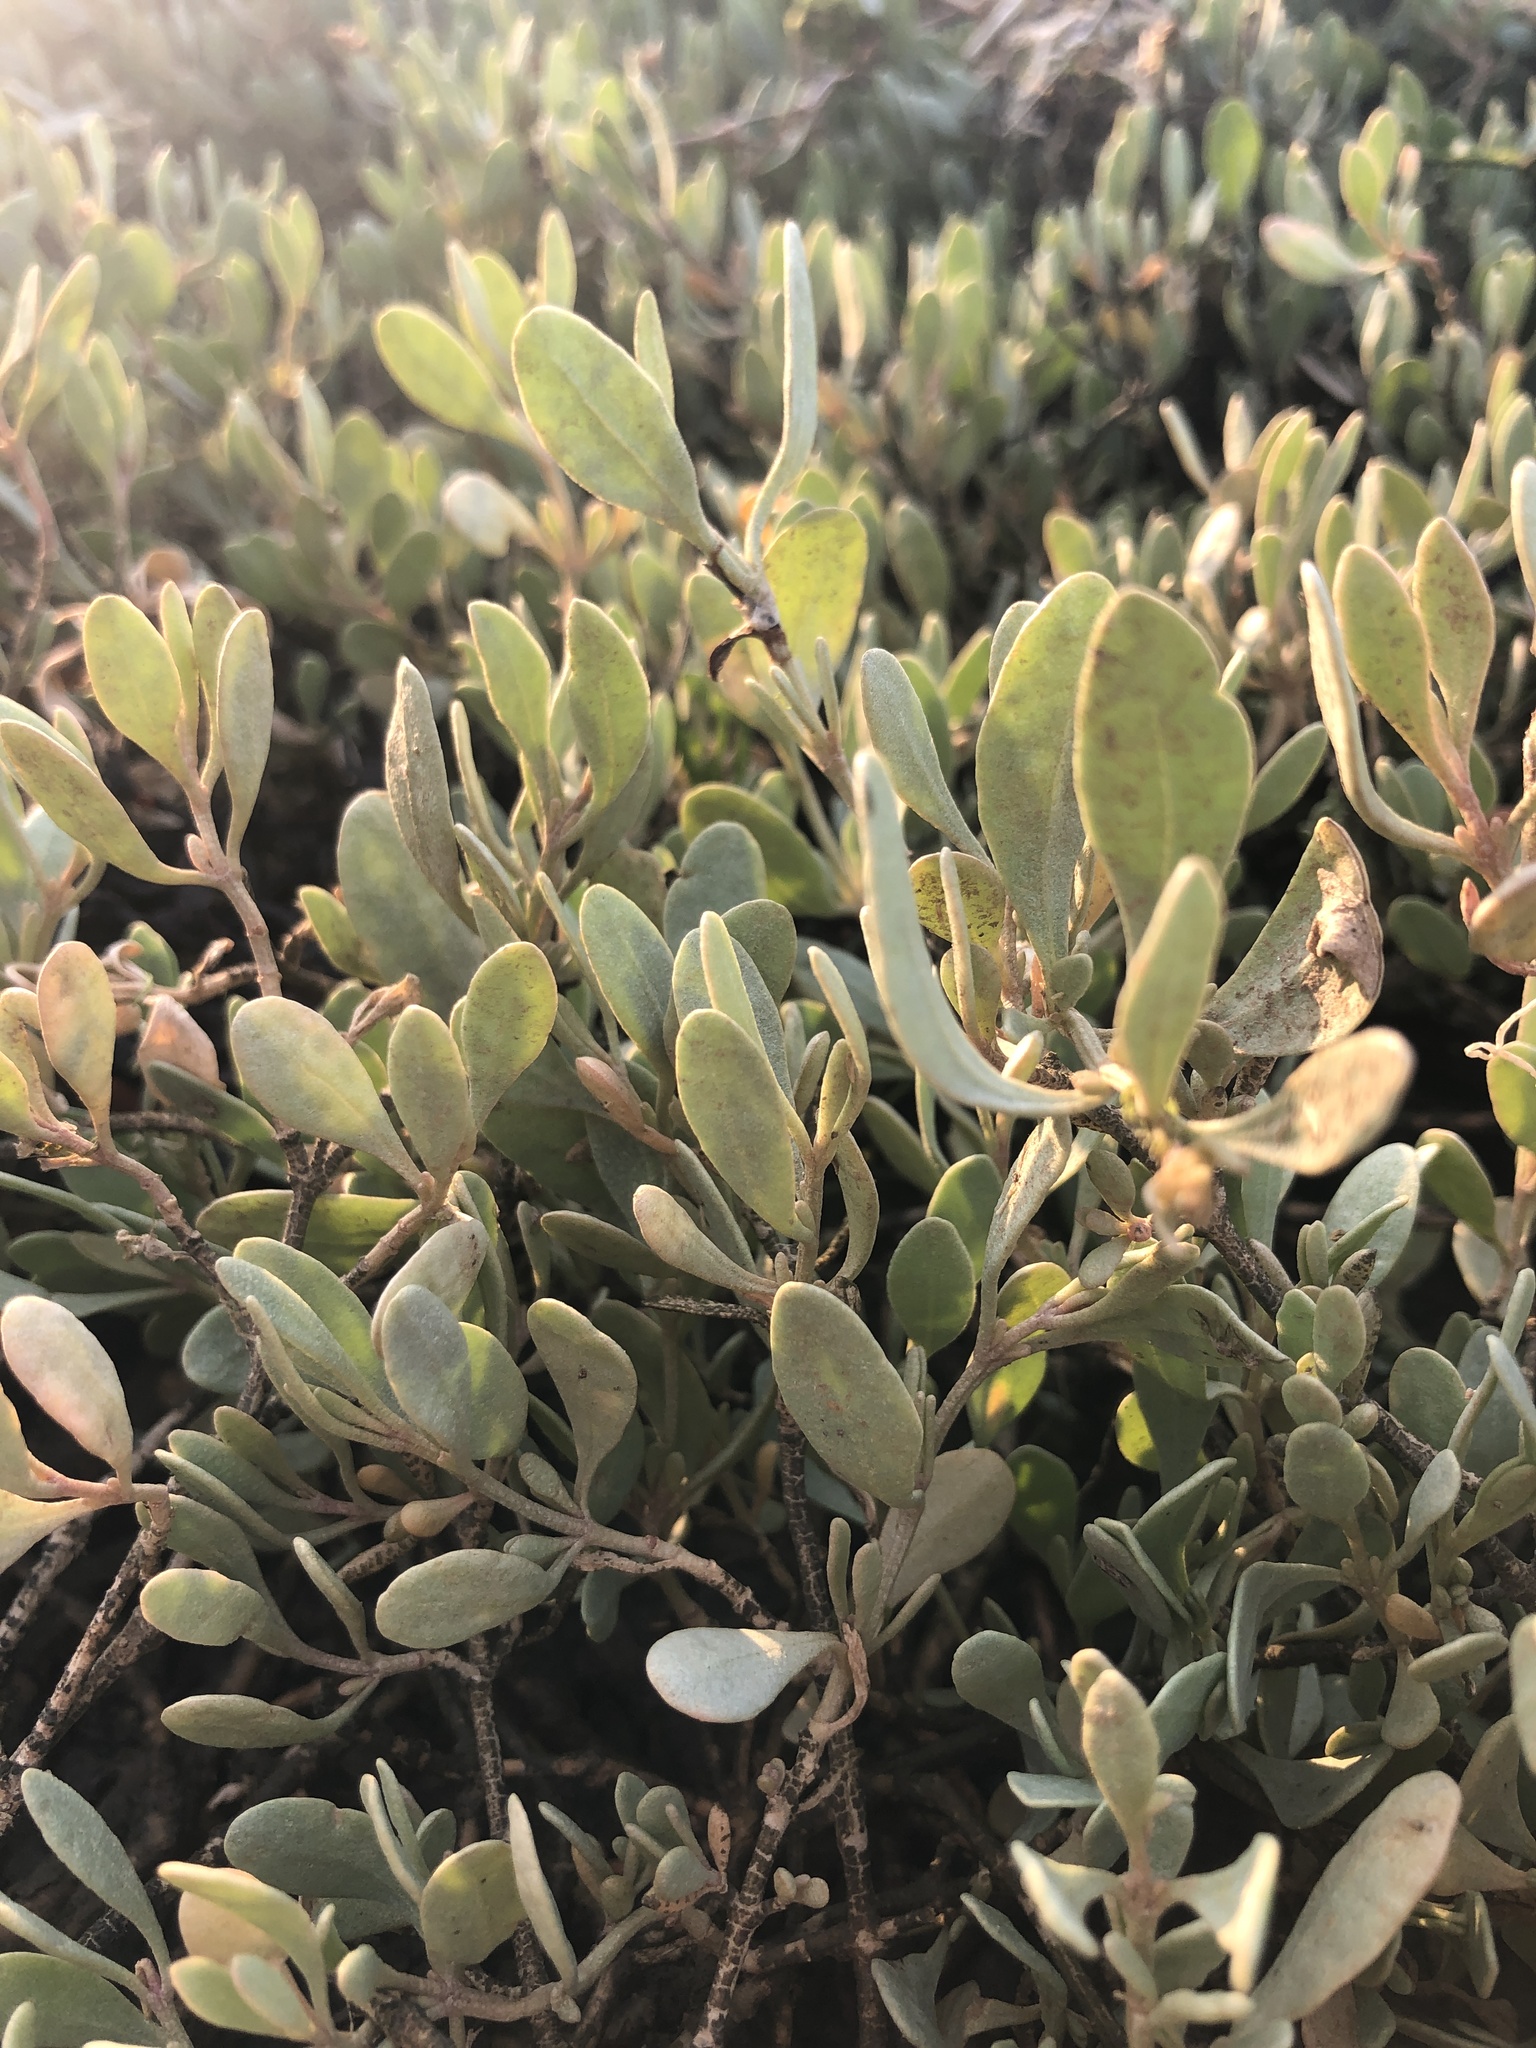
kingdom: Plantae
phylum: Tracheophyta
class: Magnoliopsida
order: Caryophyllales
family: Amaranthaceae
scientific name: Amaranthaceae
